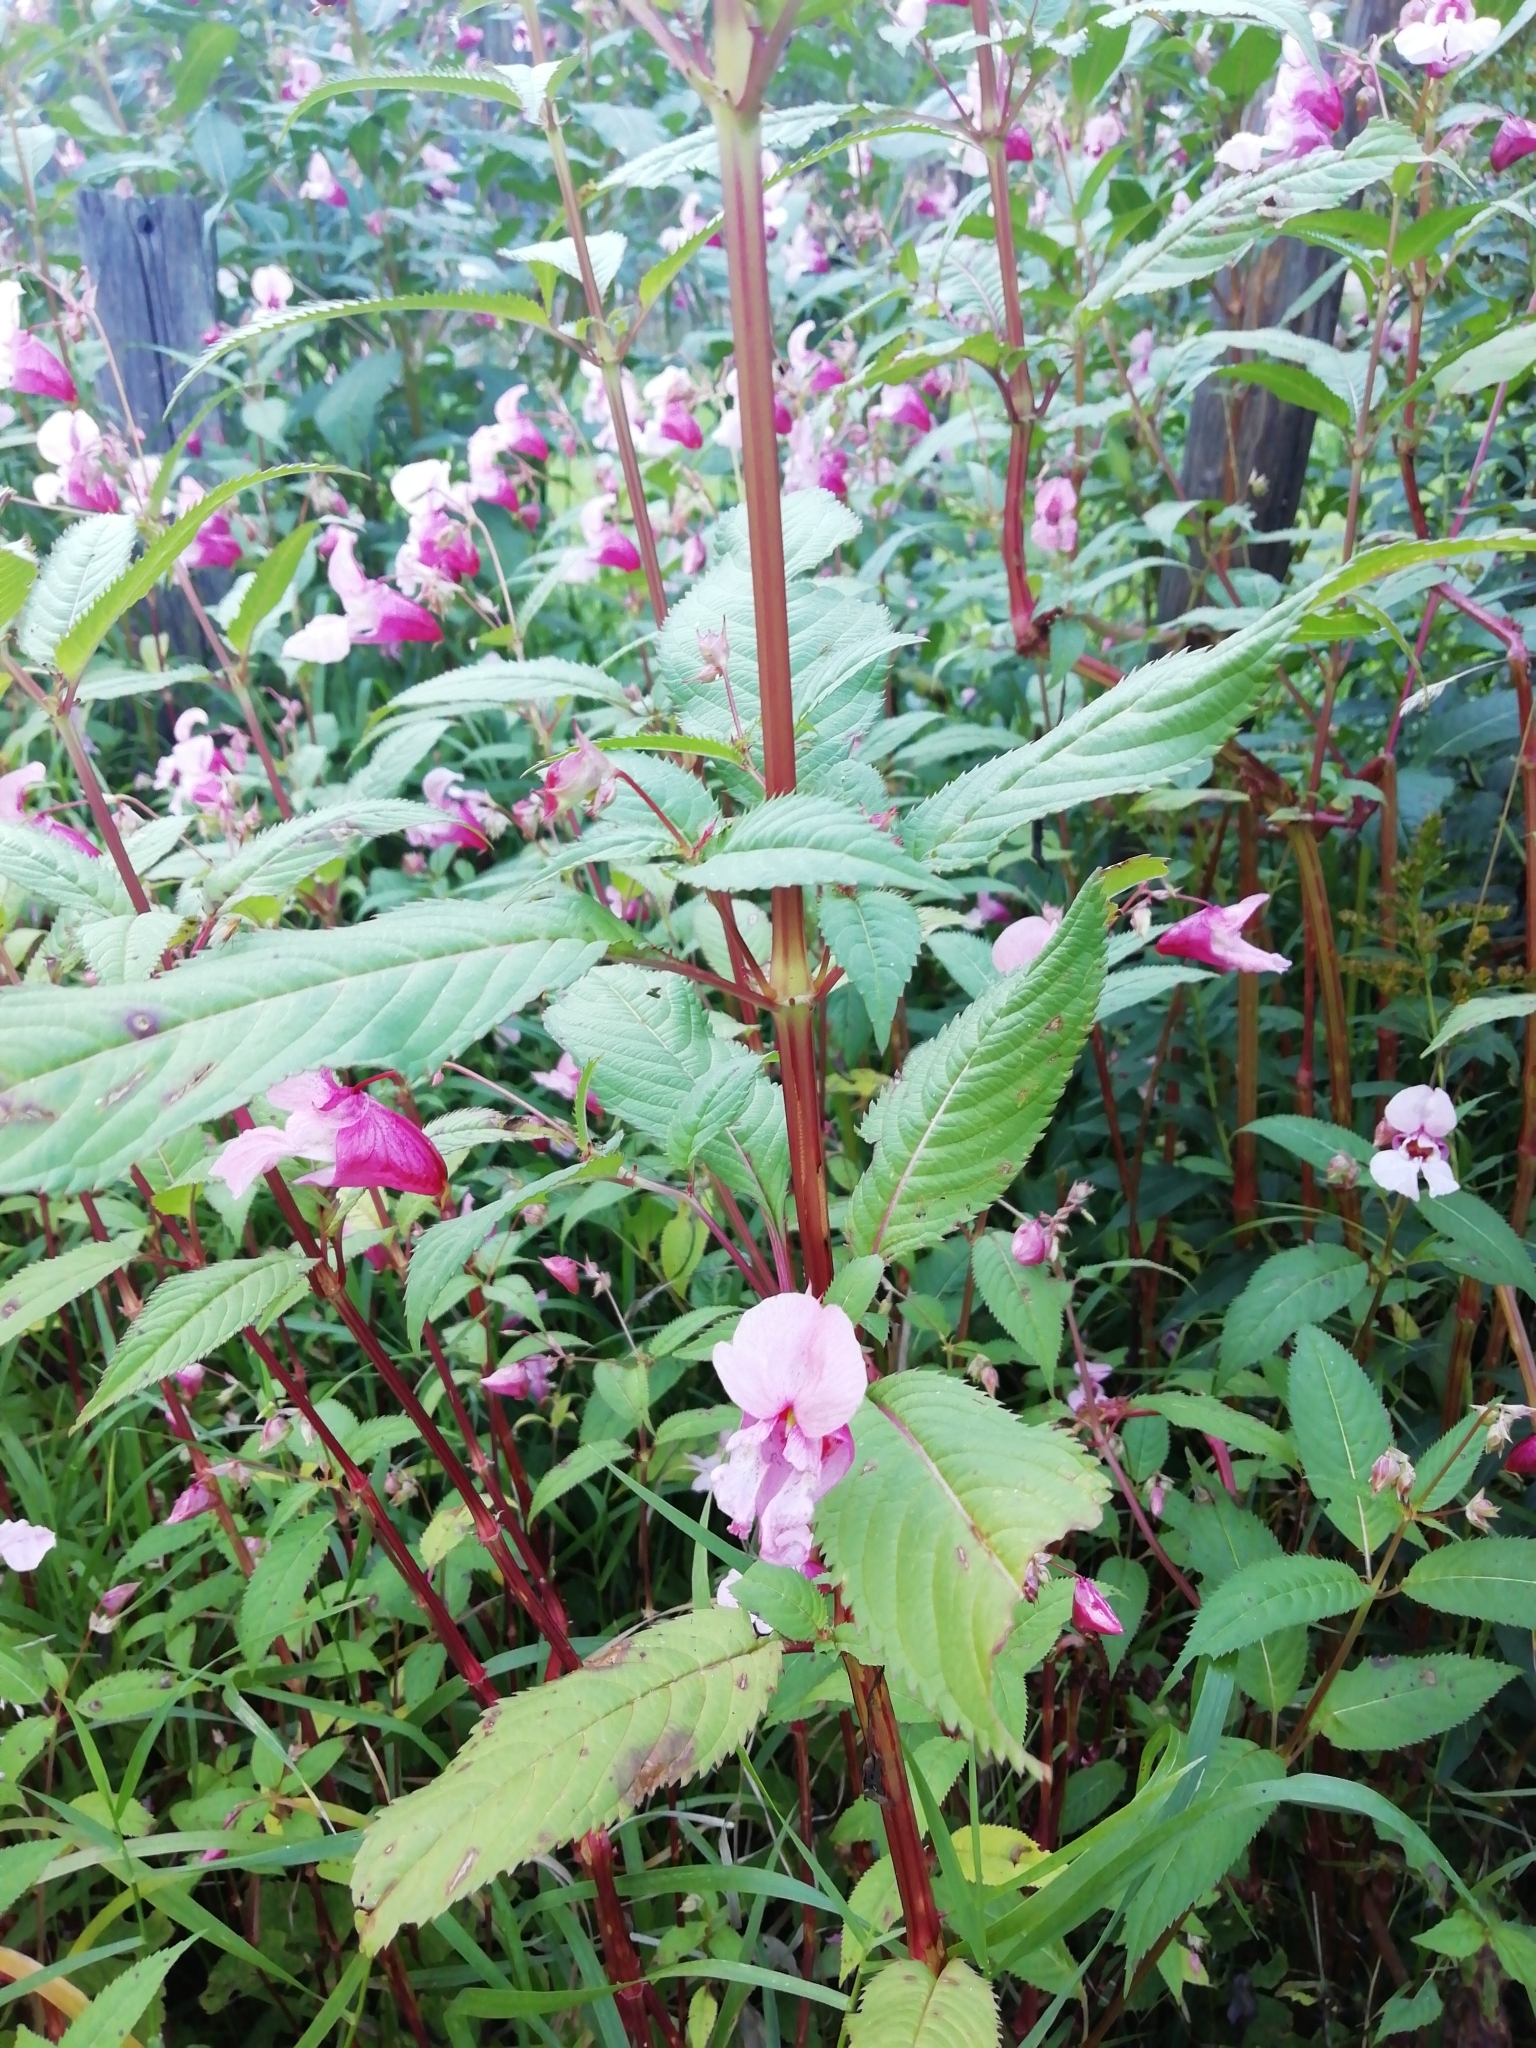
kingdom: Plantae
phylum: Tracheophyta
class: Magnoliopsida
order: Ericales
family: Balsaminaceae
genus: Impatiens
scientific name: Impatiens glandulifera
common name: Himalayan balsam
